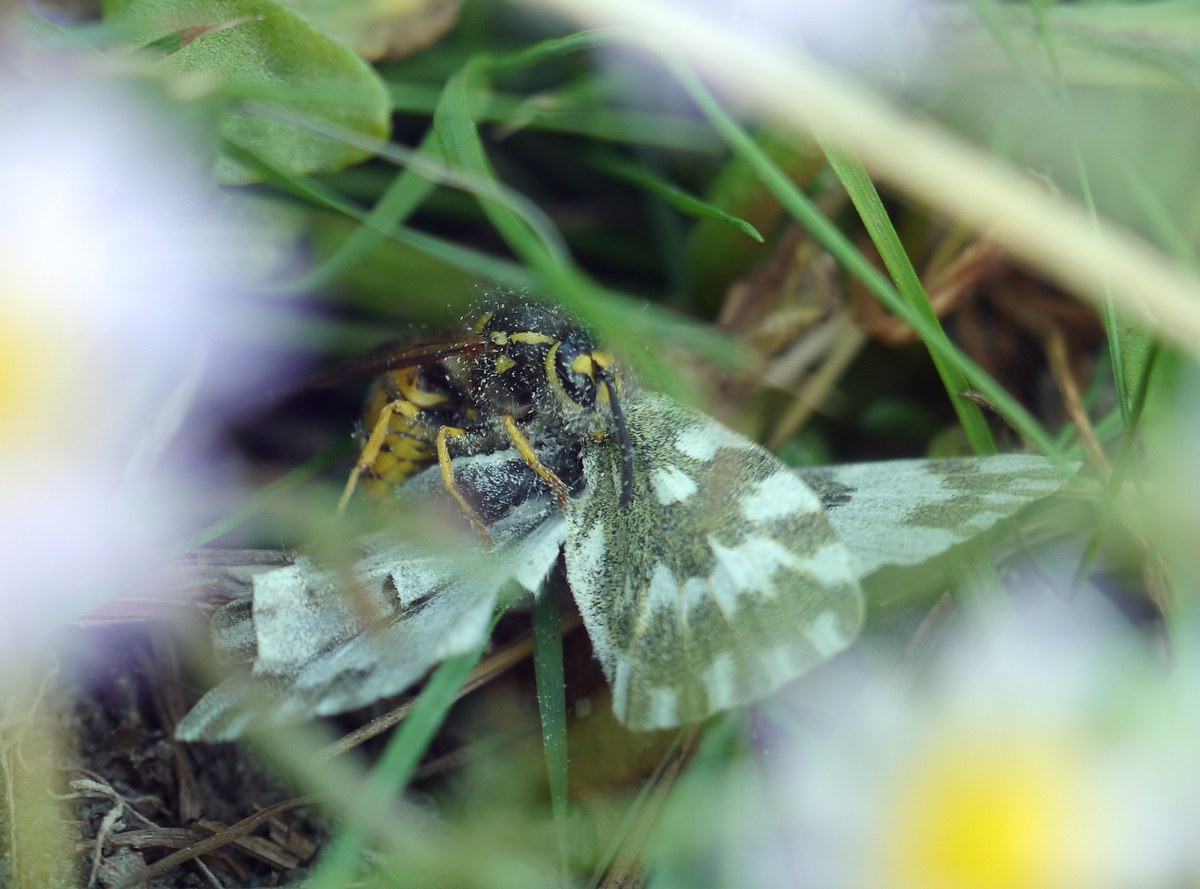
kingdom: Animalia
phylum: Arthropoda
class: Insecta
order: Hymenoptera
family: Vespidae
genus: Vespula
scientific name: Vespula germanica
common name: German wasp
